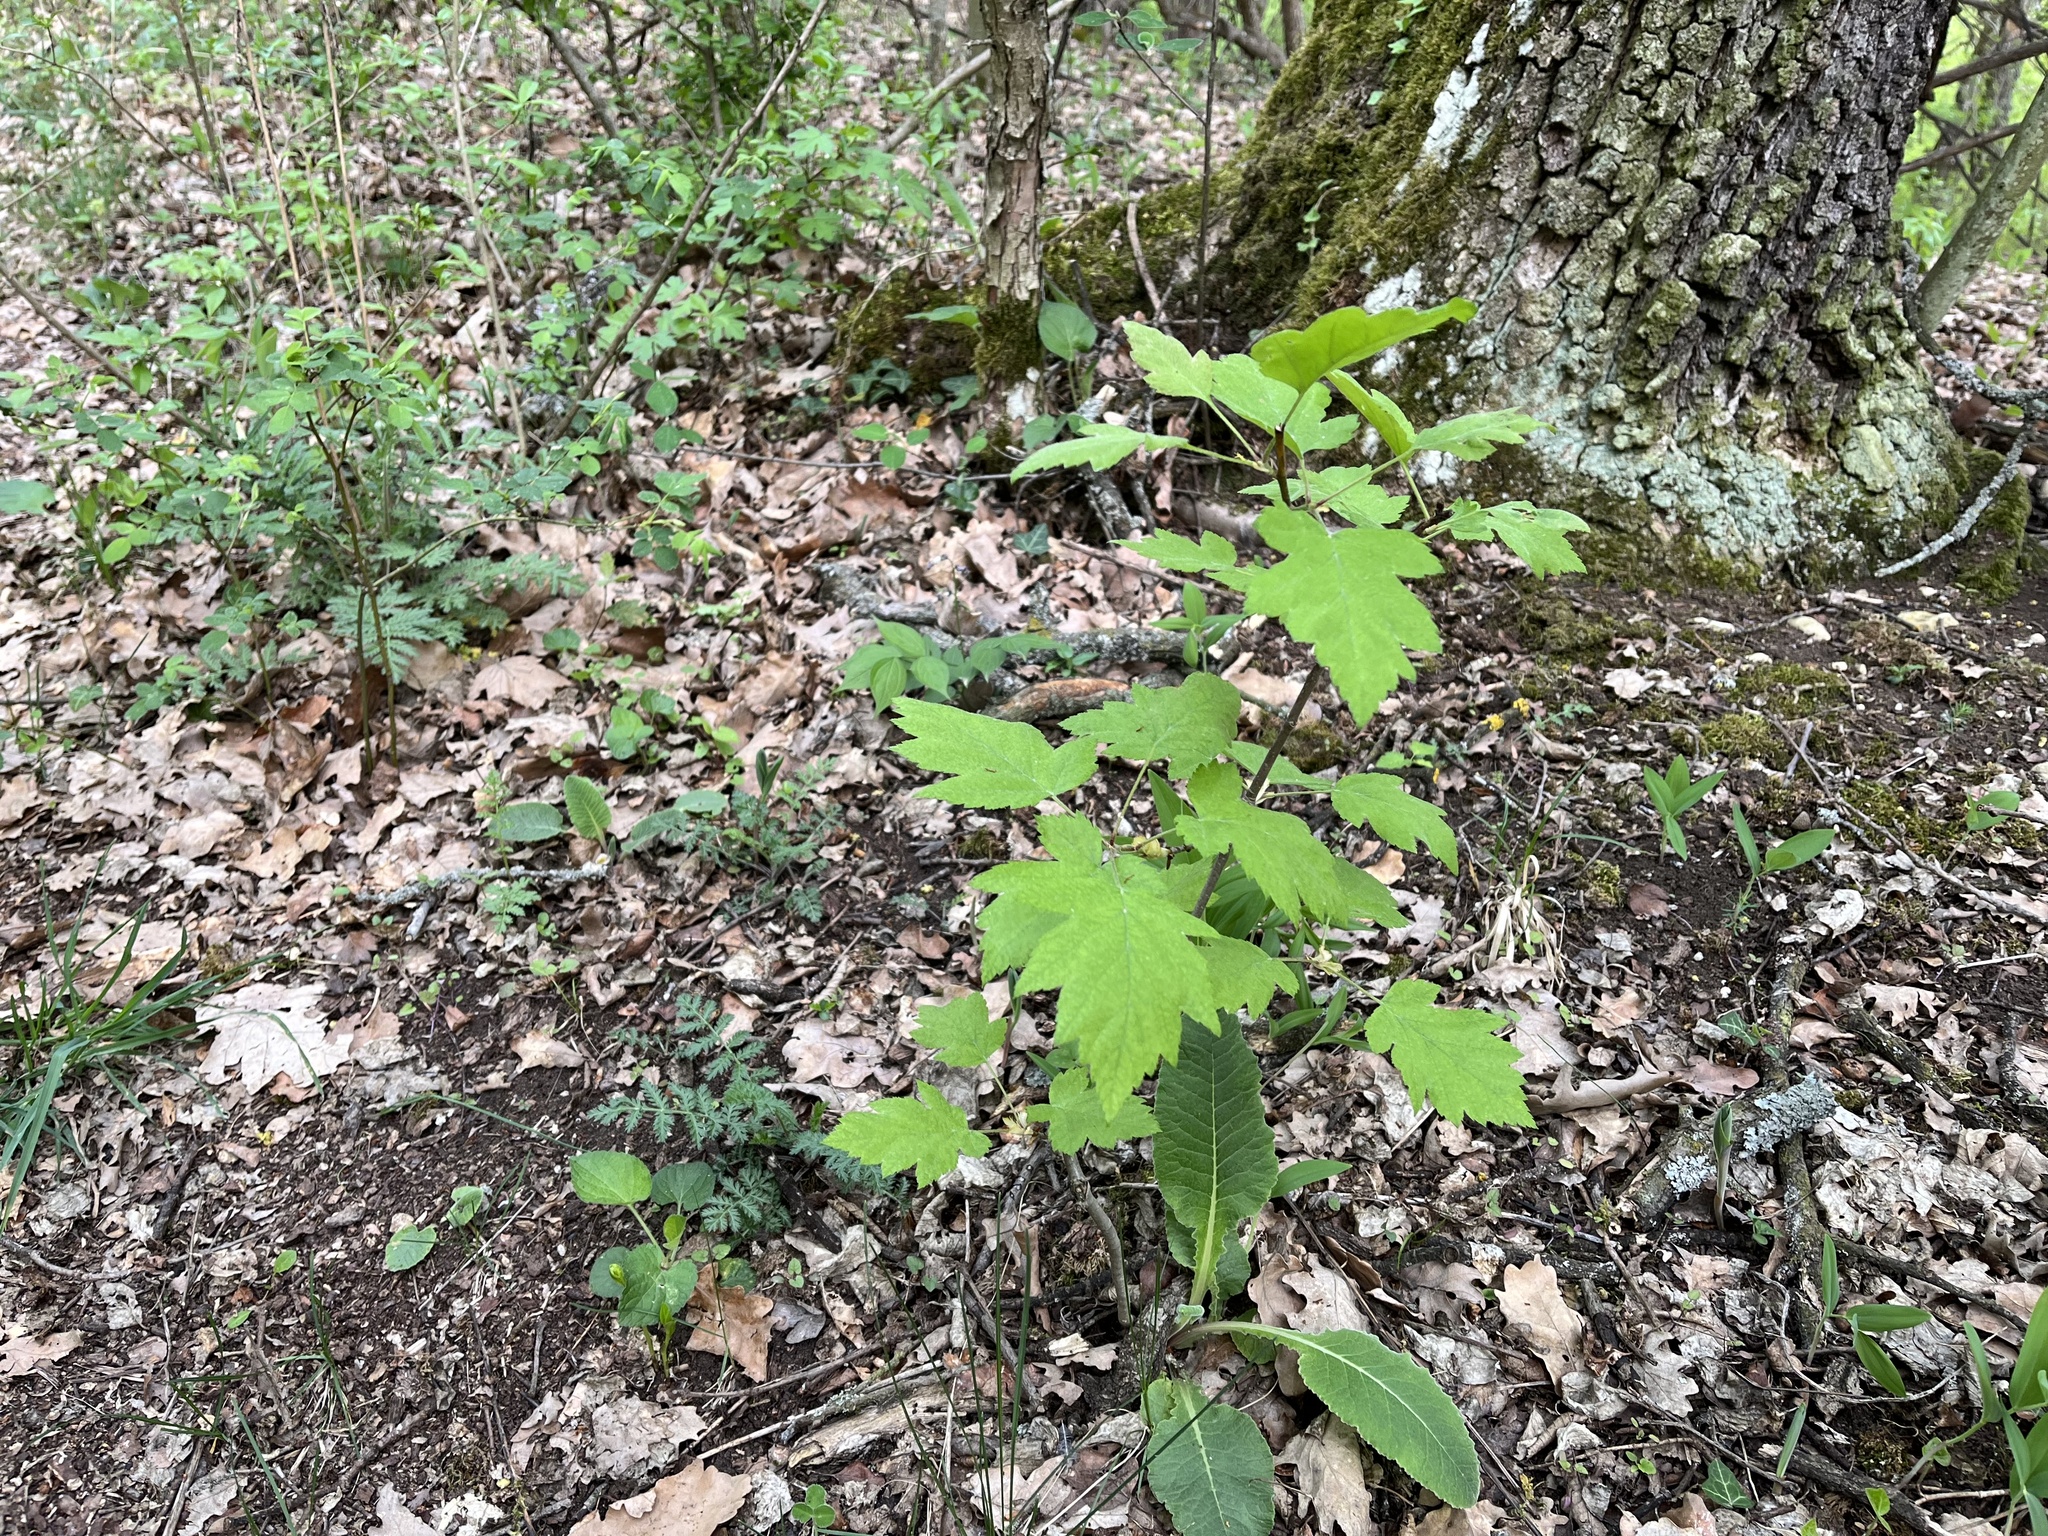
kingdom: Plantae
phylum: Tracheophyta
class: Magnoliopsida
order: Rosales
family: Rosaceae
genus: Torminalis
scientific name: Torminalis glaberrima
